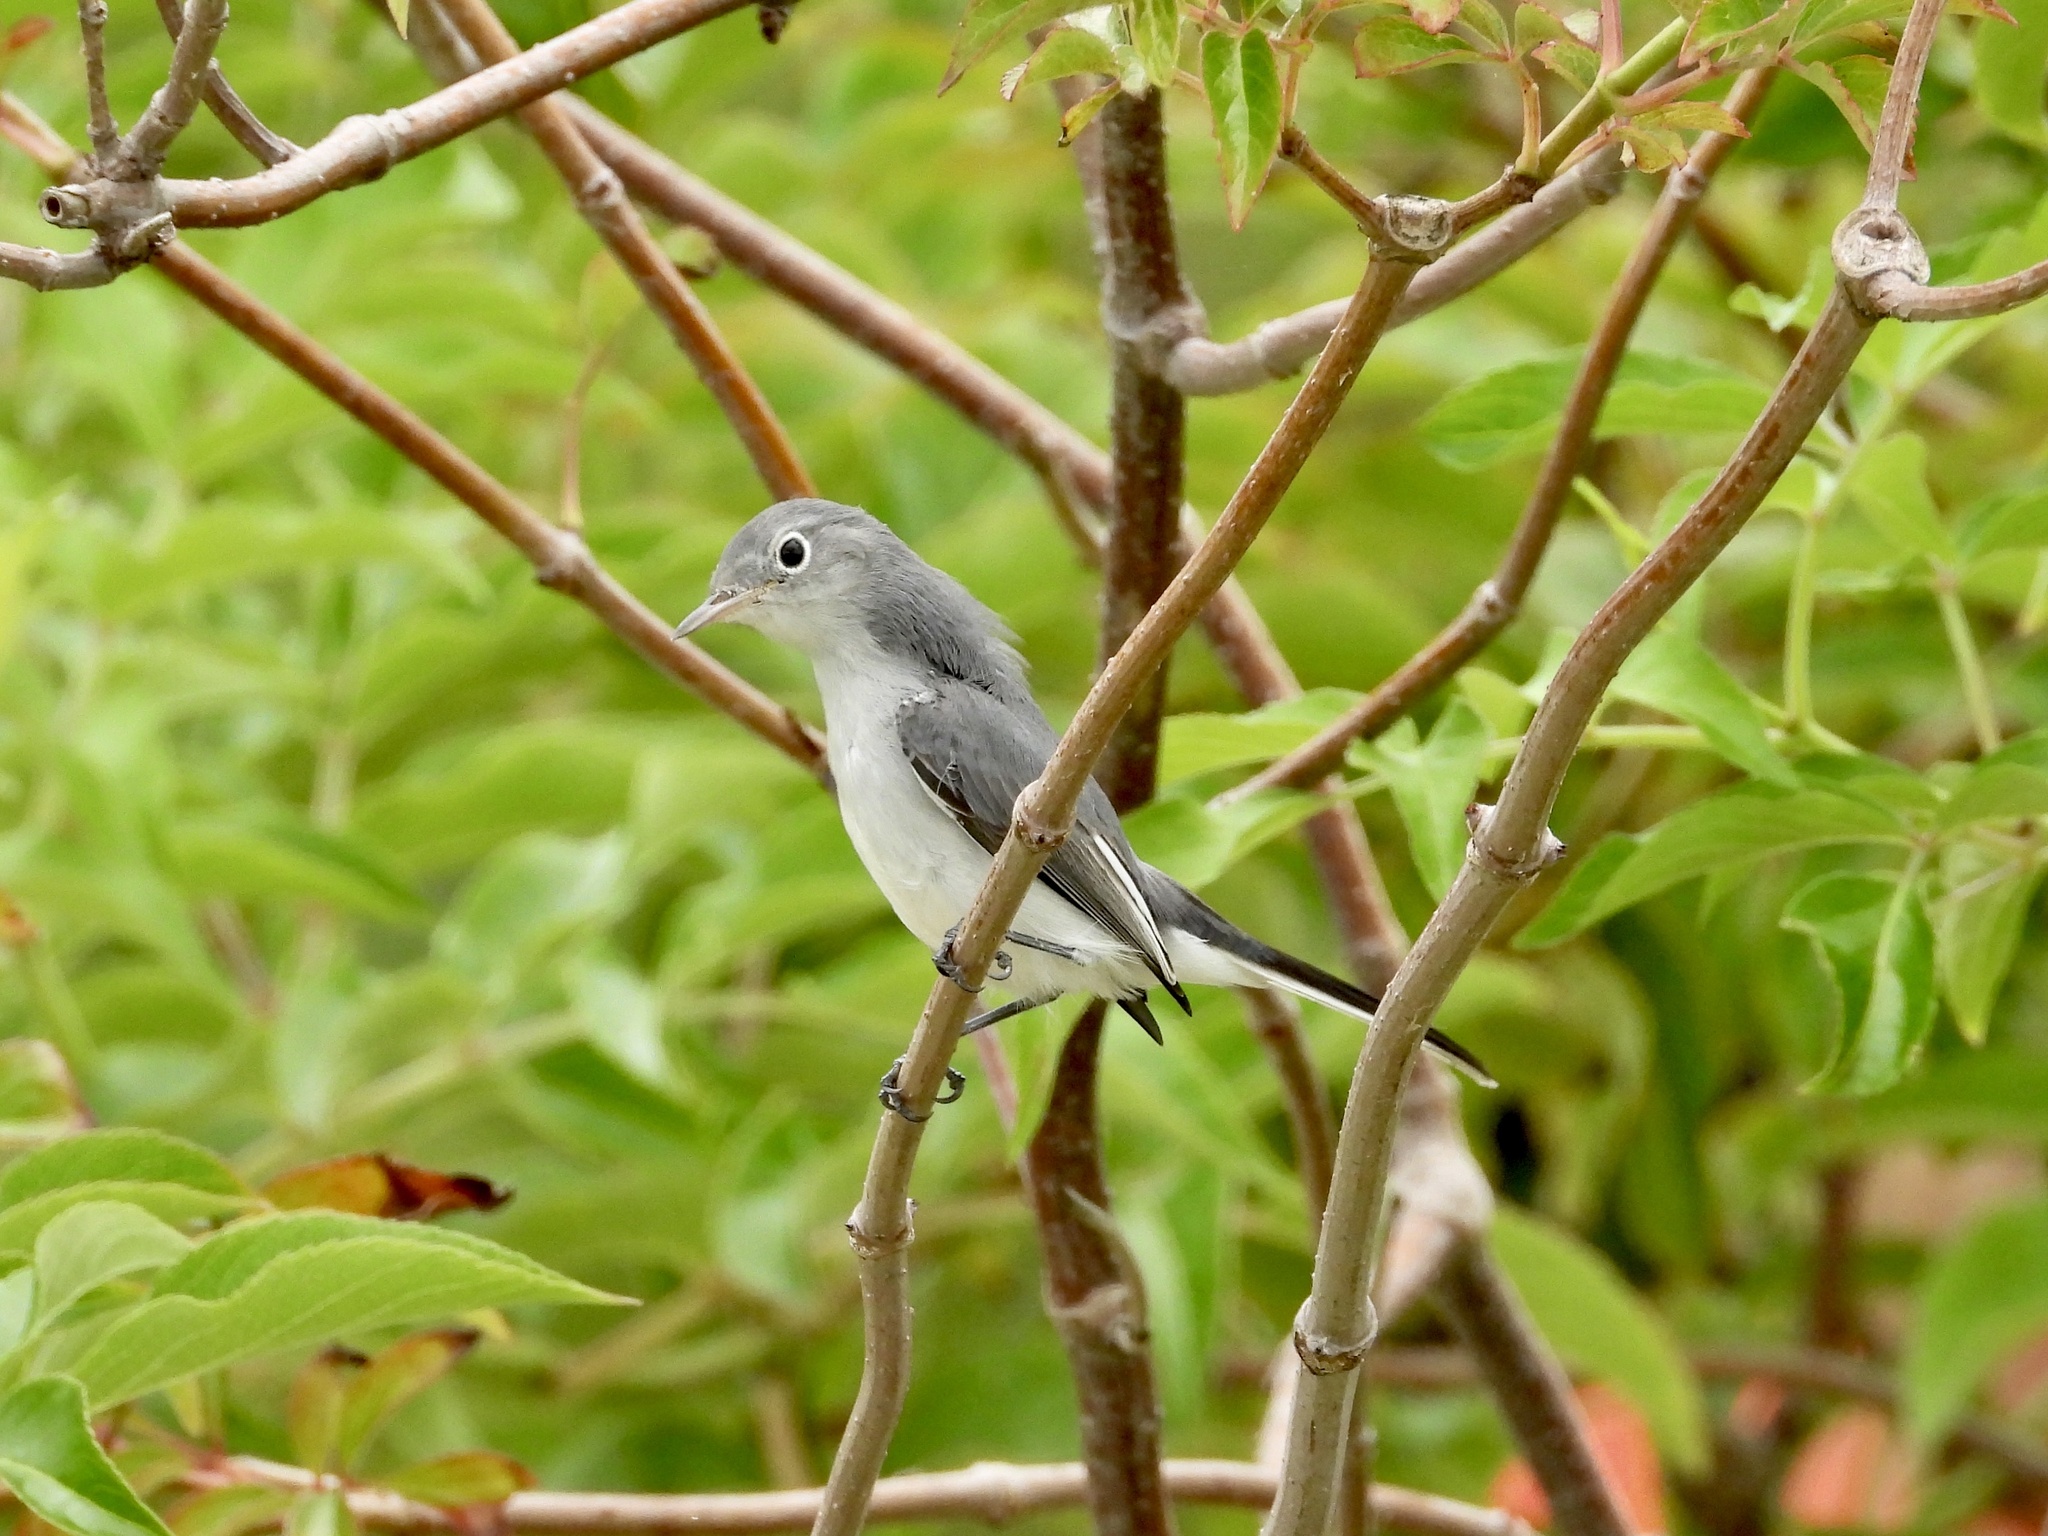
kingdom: Animalia
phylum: Chordata
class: Aves
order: Passeriformes
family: Polioptilidae
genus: Polioptila
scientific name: Polioptila caerulea
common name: Blue-gray gnatcatcher
